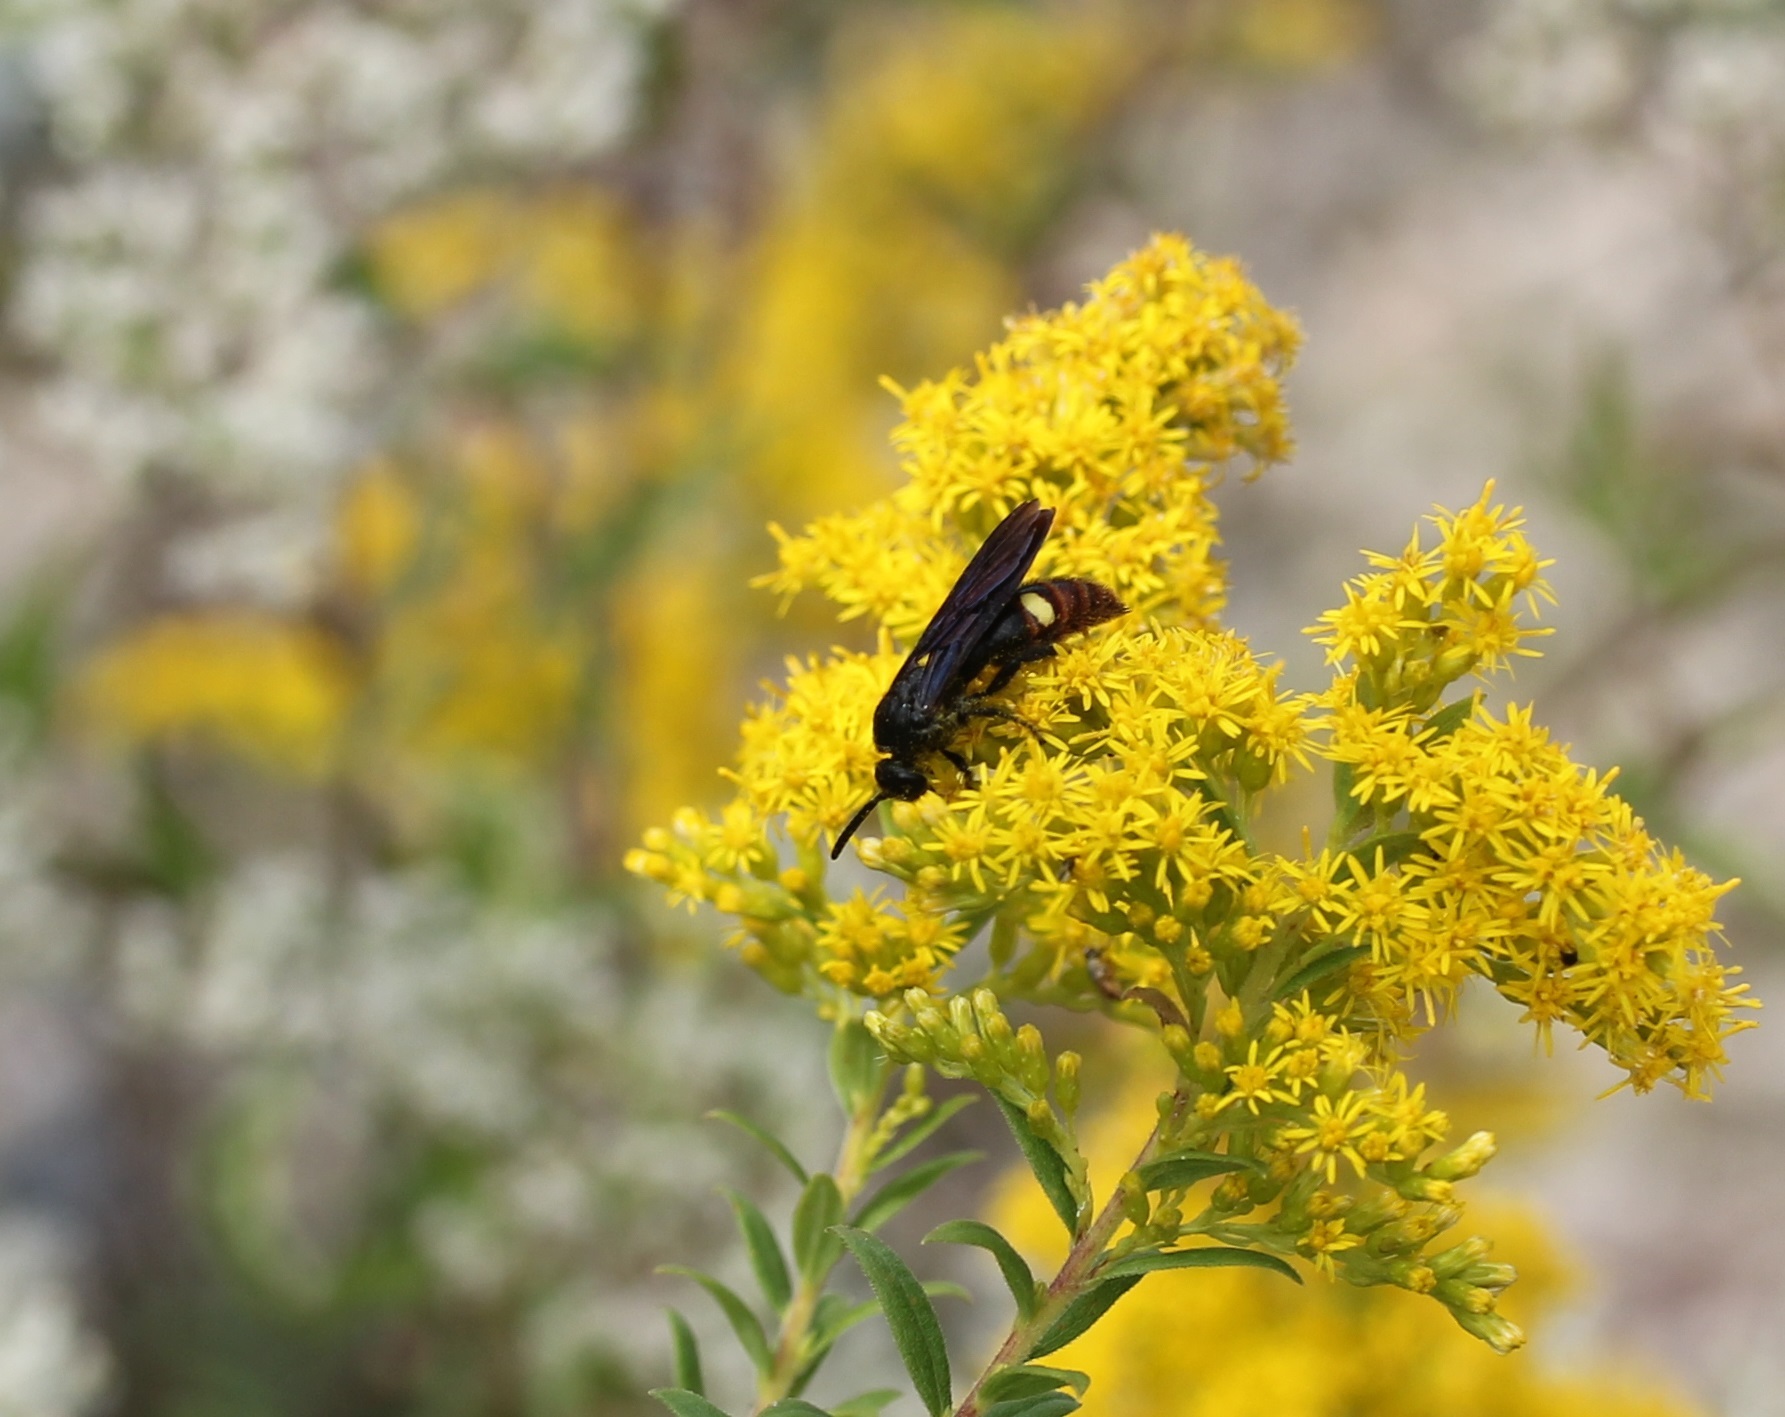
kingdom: Animalia
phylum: Arthropoda
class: Insecta
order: Hymenoptera
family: Scoliidae
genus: Scolia
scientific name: Scolia dubia
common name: Blue-winged scoliid wasp
